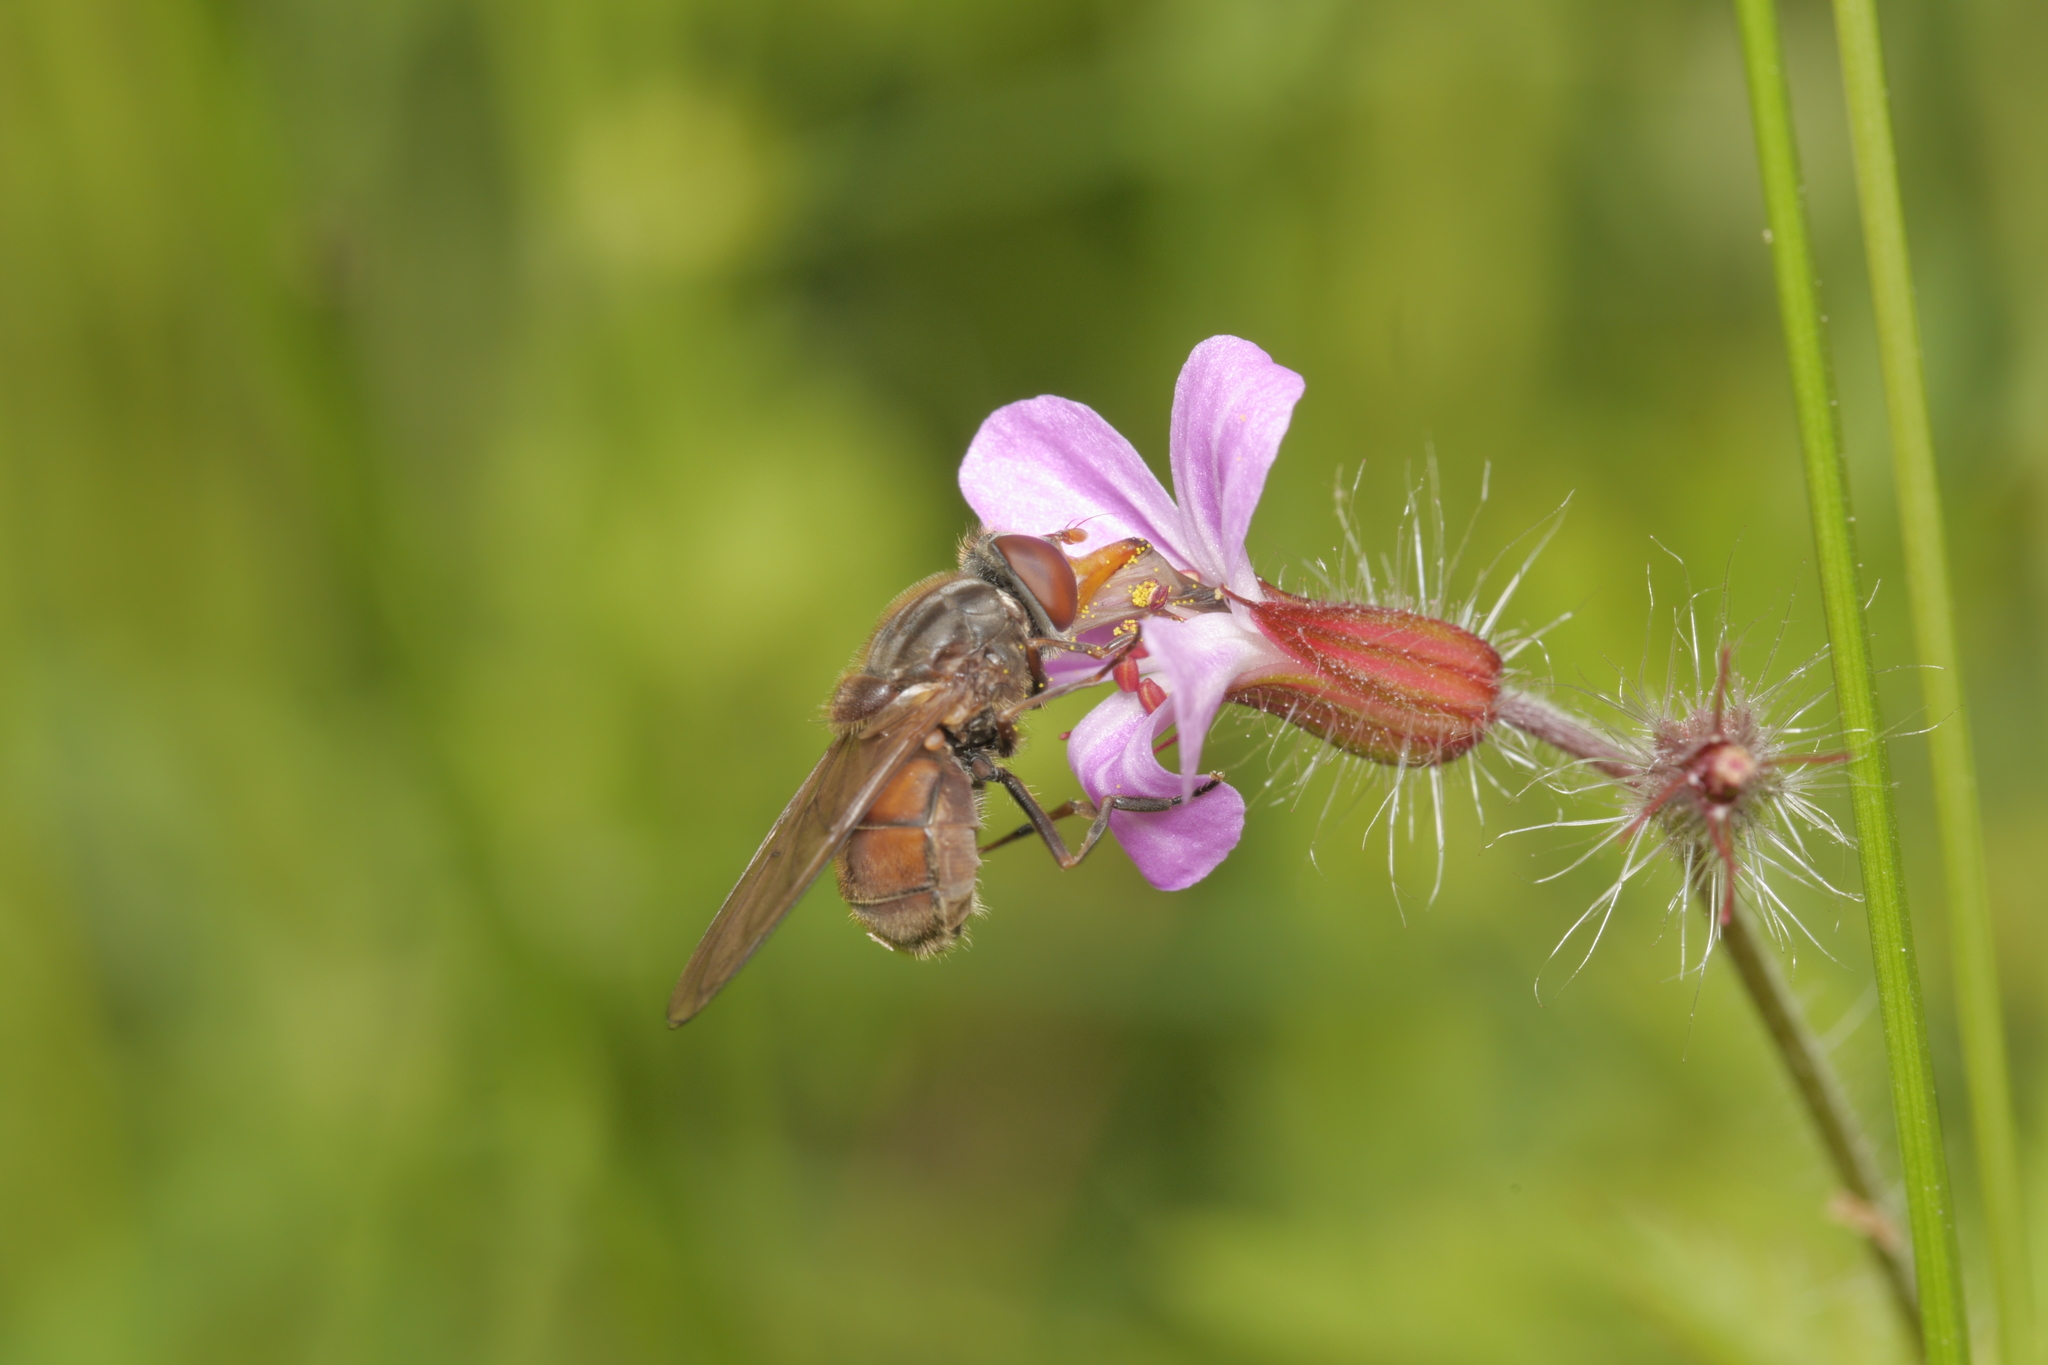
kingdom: Animalia
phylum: Arthropoda
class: Insecta
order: Diptera
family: Syrphidae
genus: Rhingia
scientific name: Rhingia campestris
